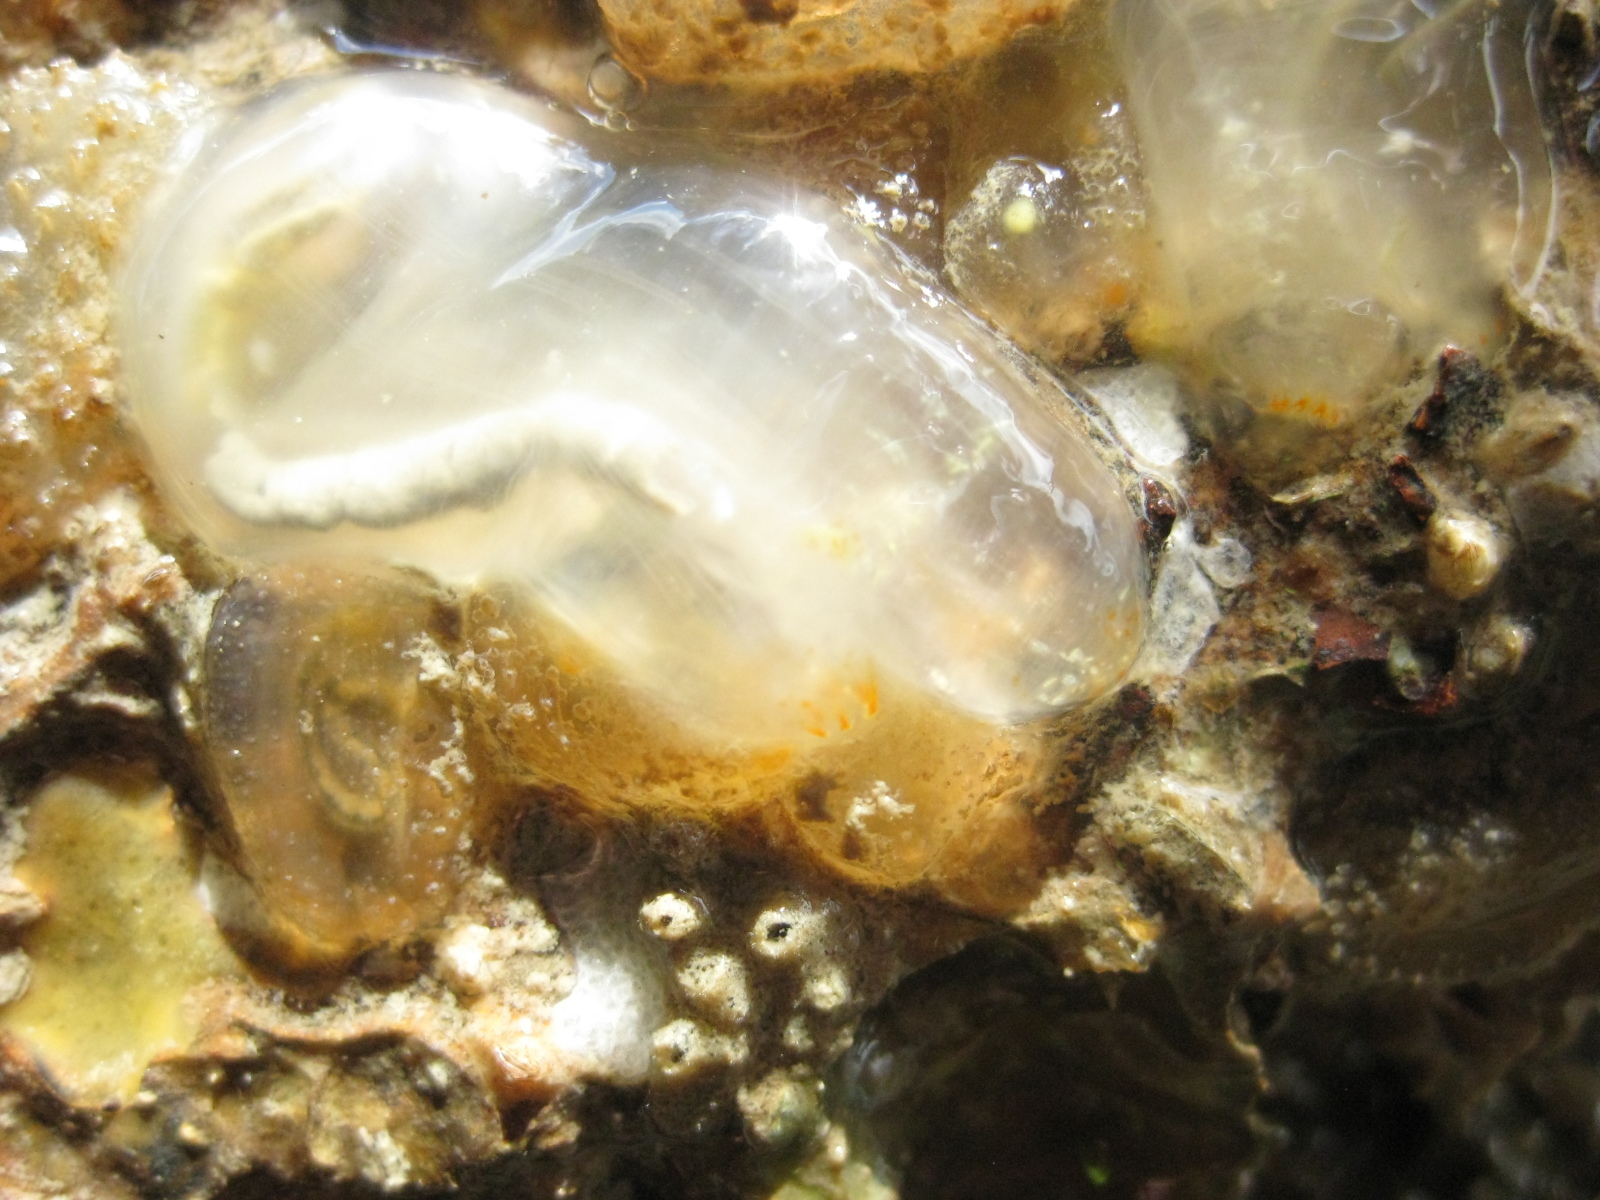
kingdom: Animalia
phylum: Chordata
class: Ascidiacea
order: Phlebobranchia
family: Cionidae
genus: Ciona
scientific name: Ciona savignyi
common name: Tunicate
